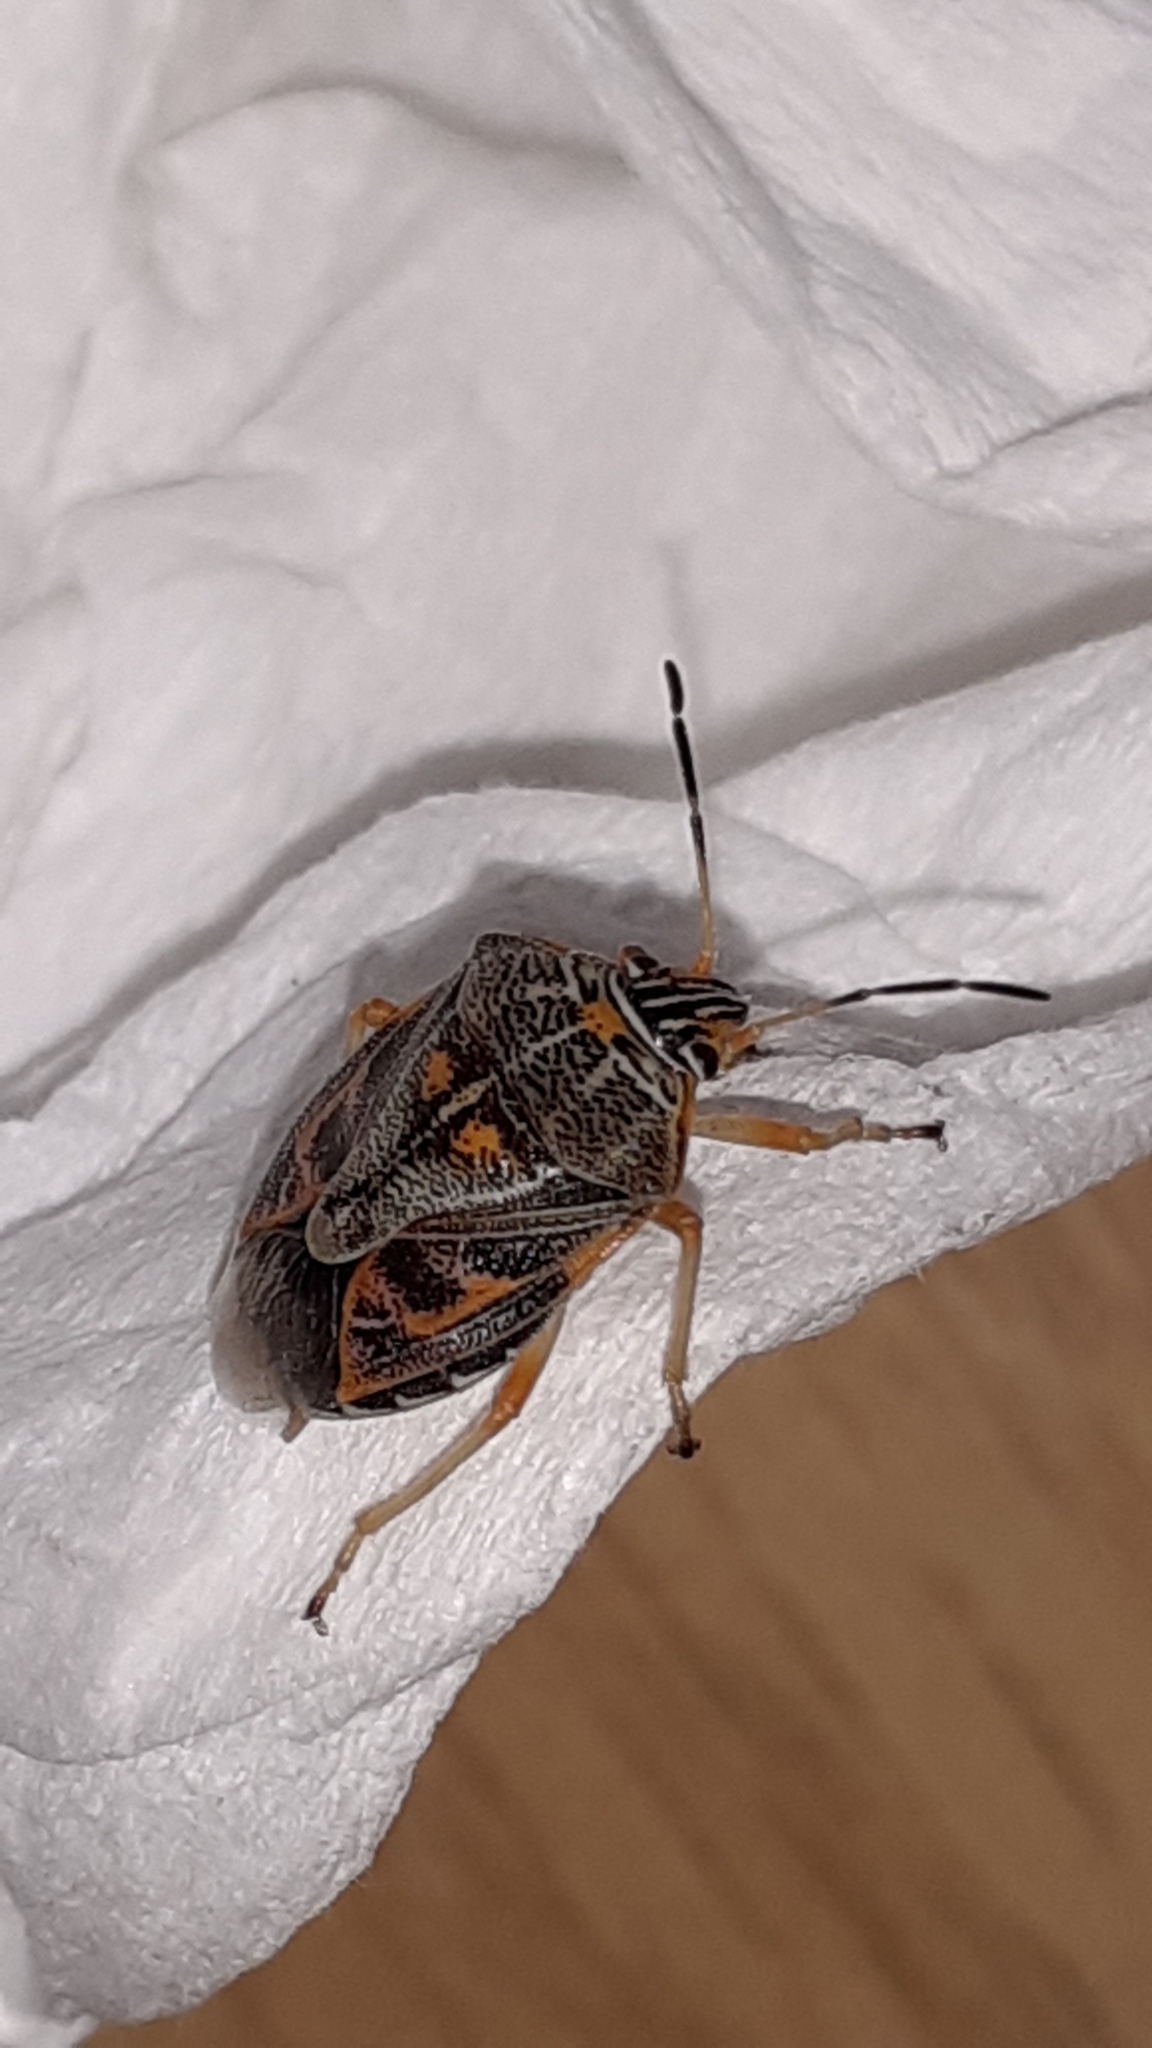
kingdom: Animalia
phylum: Arthropoda
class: Insecta
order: Hemiptera
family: Pentatomidae
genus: Antestiopsis
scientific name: Antestiopsis thunbergii
